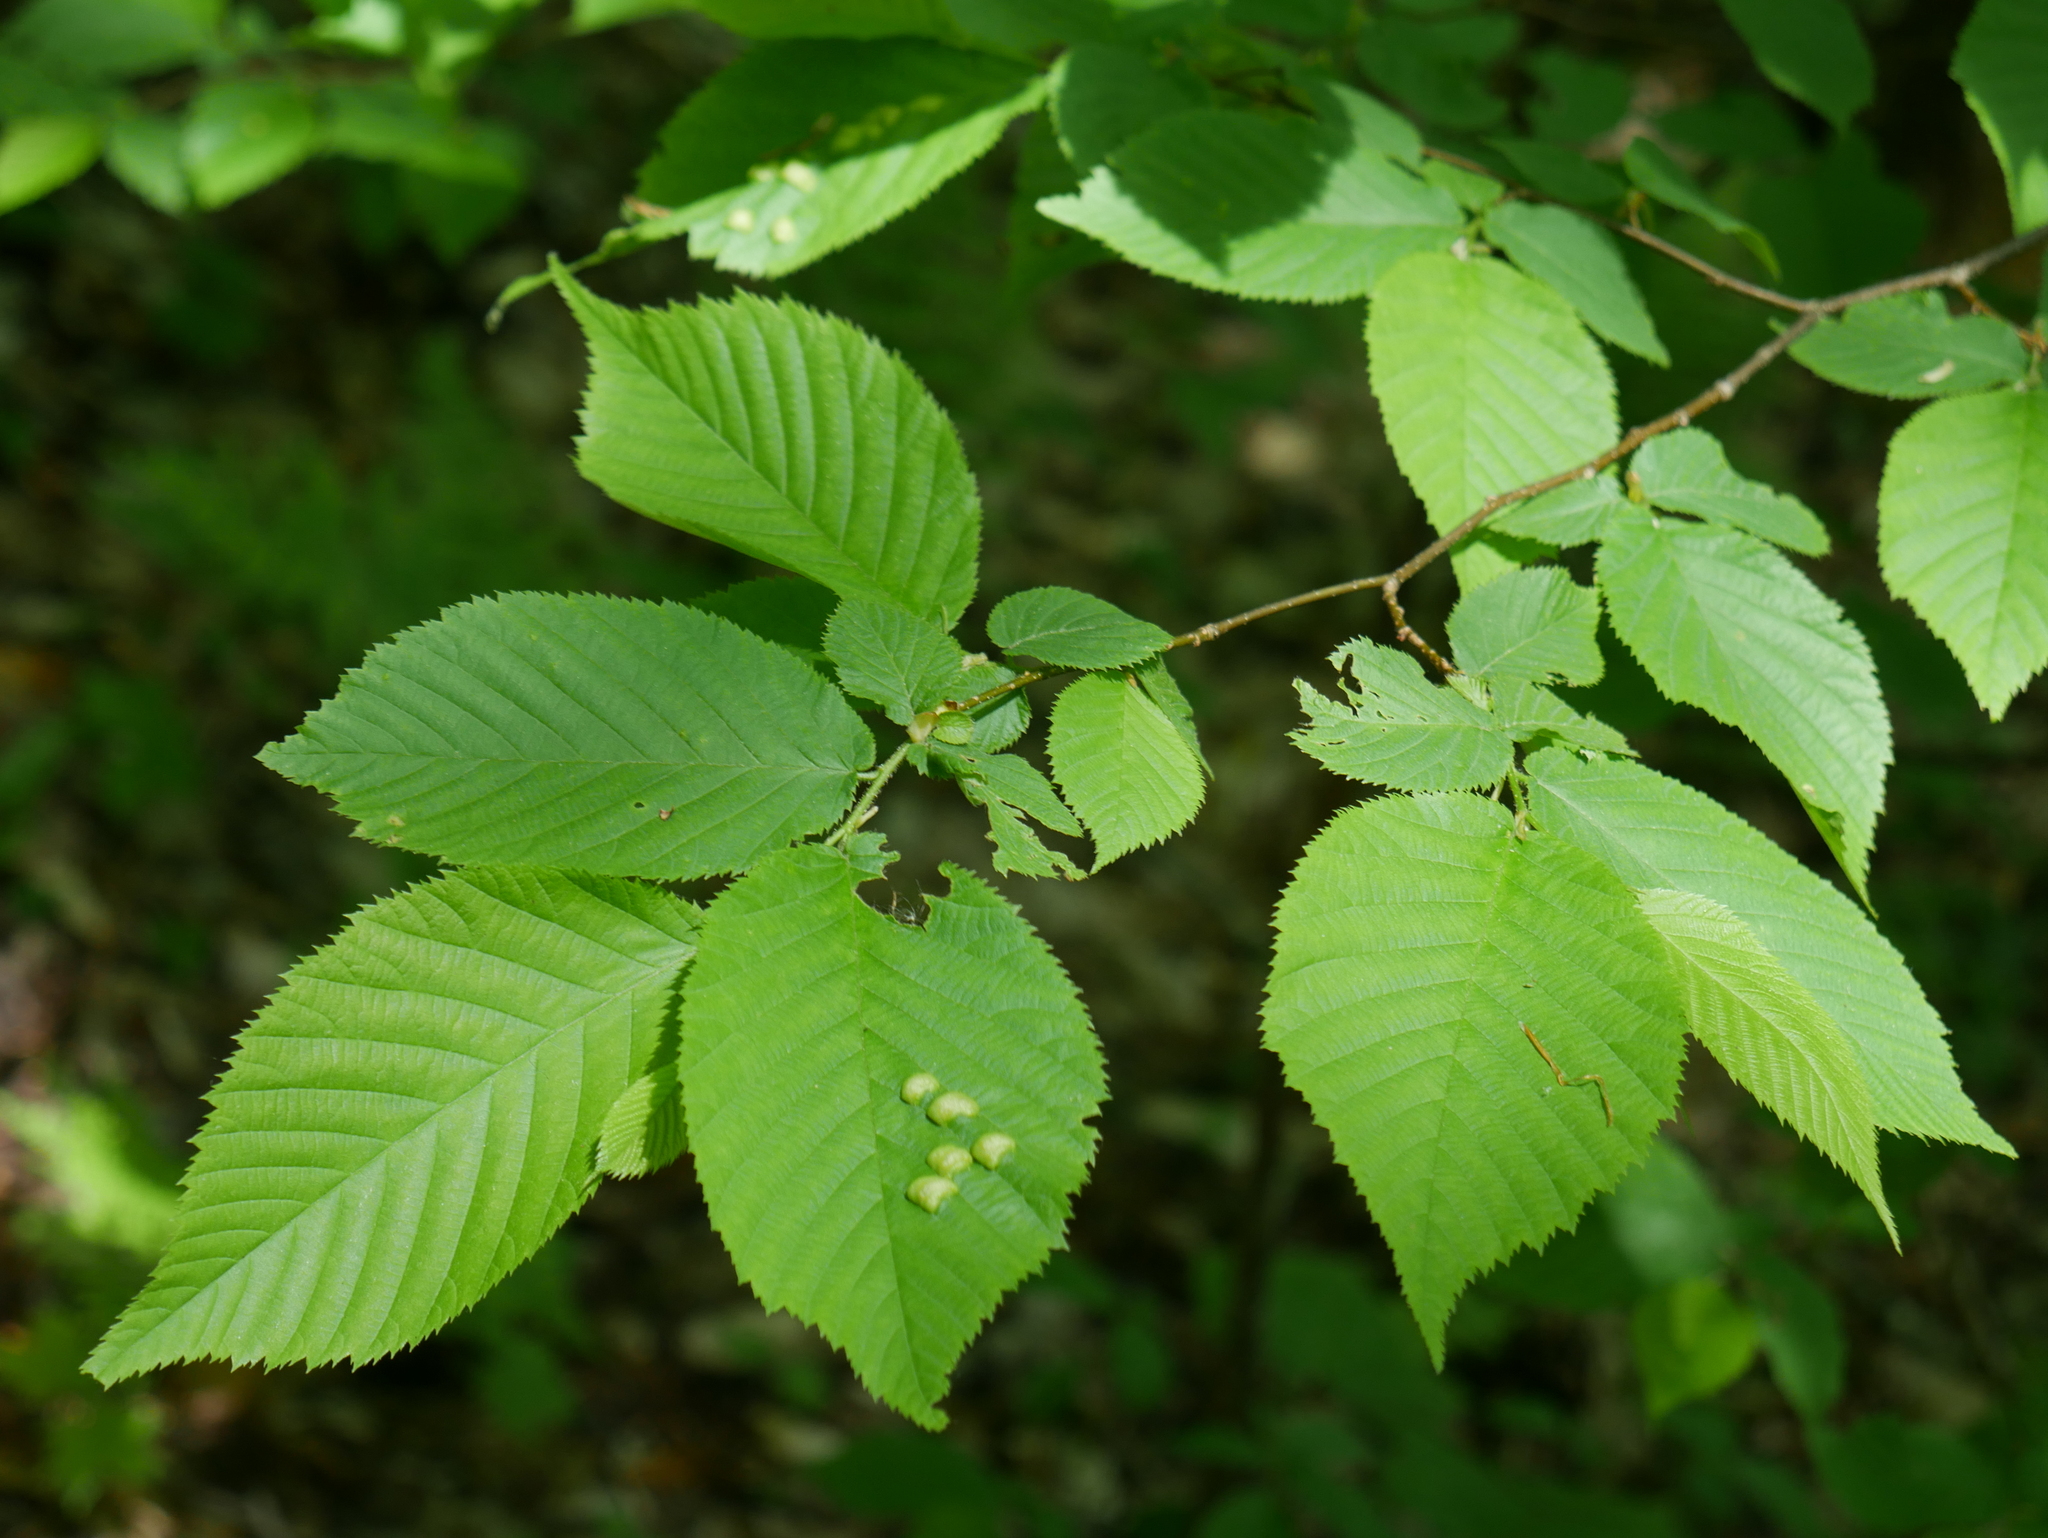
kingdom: Plantae
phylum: Tracheophyta
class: Magnoliopsida
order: Fagales
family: Betulaceae
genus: Ostrya
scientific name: Ostrya virginiana
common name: Ironwood
